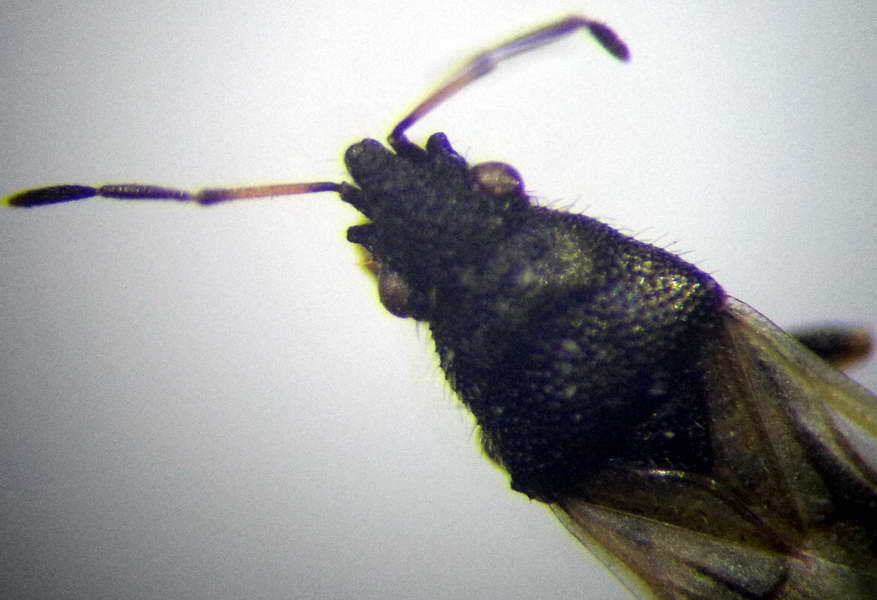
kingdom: Animalia
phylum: Arthropoda
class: Insecta
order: Hemiptera
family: Oxycarenidae
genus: Metopoplax
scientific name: Metopoplax origani
